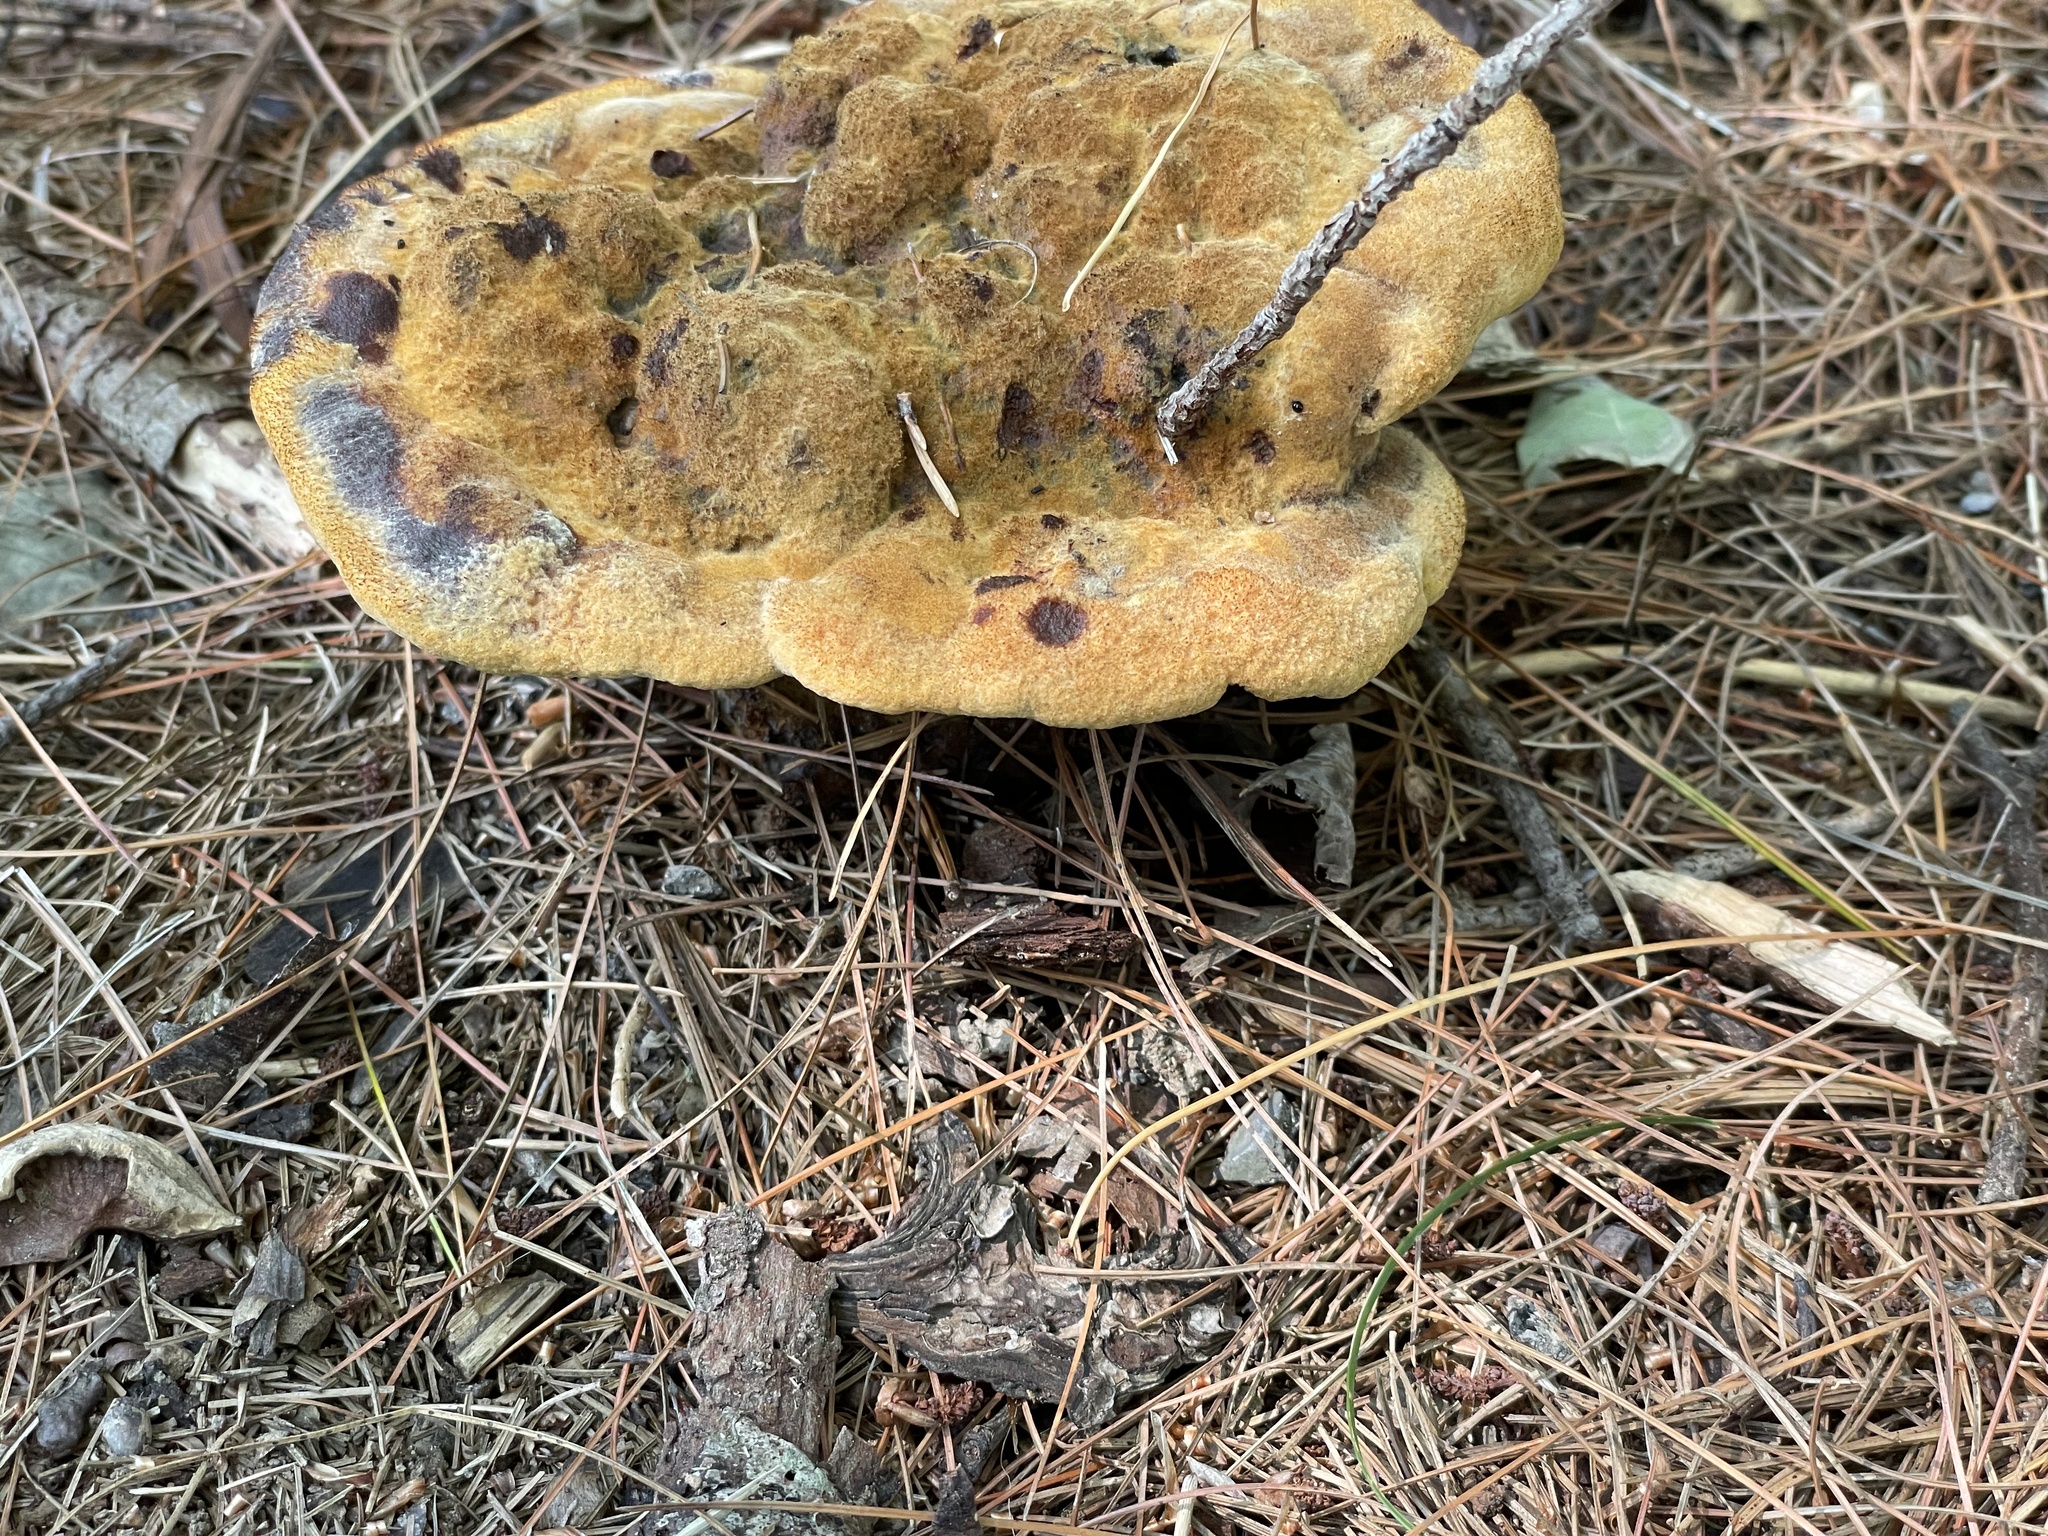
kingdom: Fungi
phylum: Basidiomycota
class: Agaricomycetes
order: Polyporales
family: Laetiporaceae
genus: Phaeolus
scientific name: Phaeolus schweinitzii
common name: Dyer's mazegill
